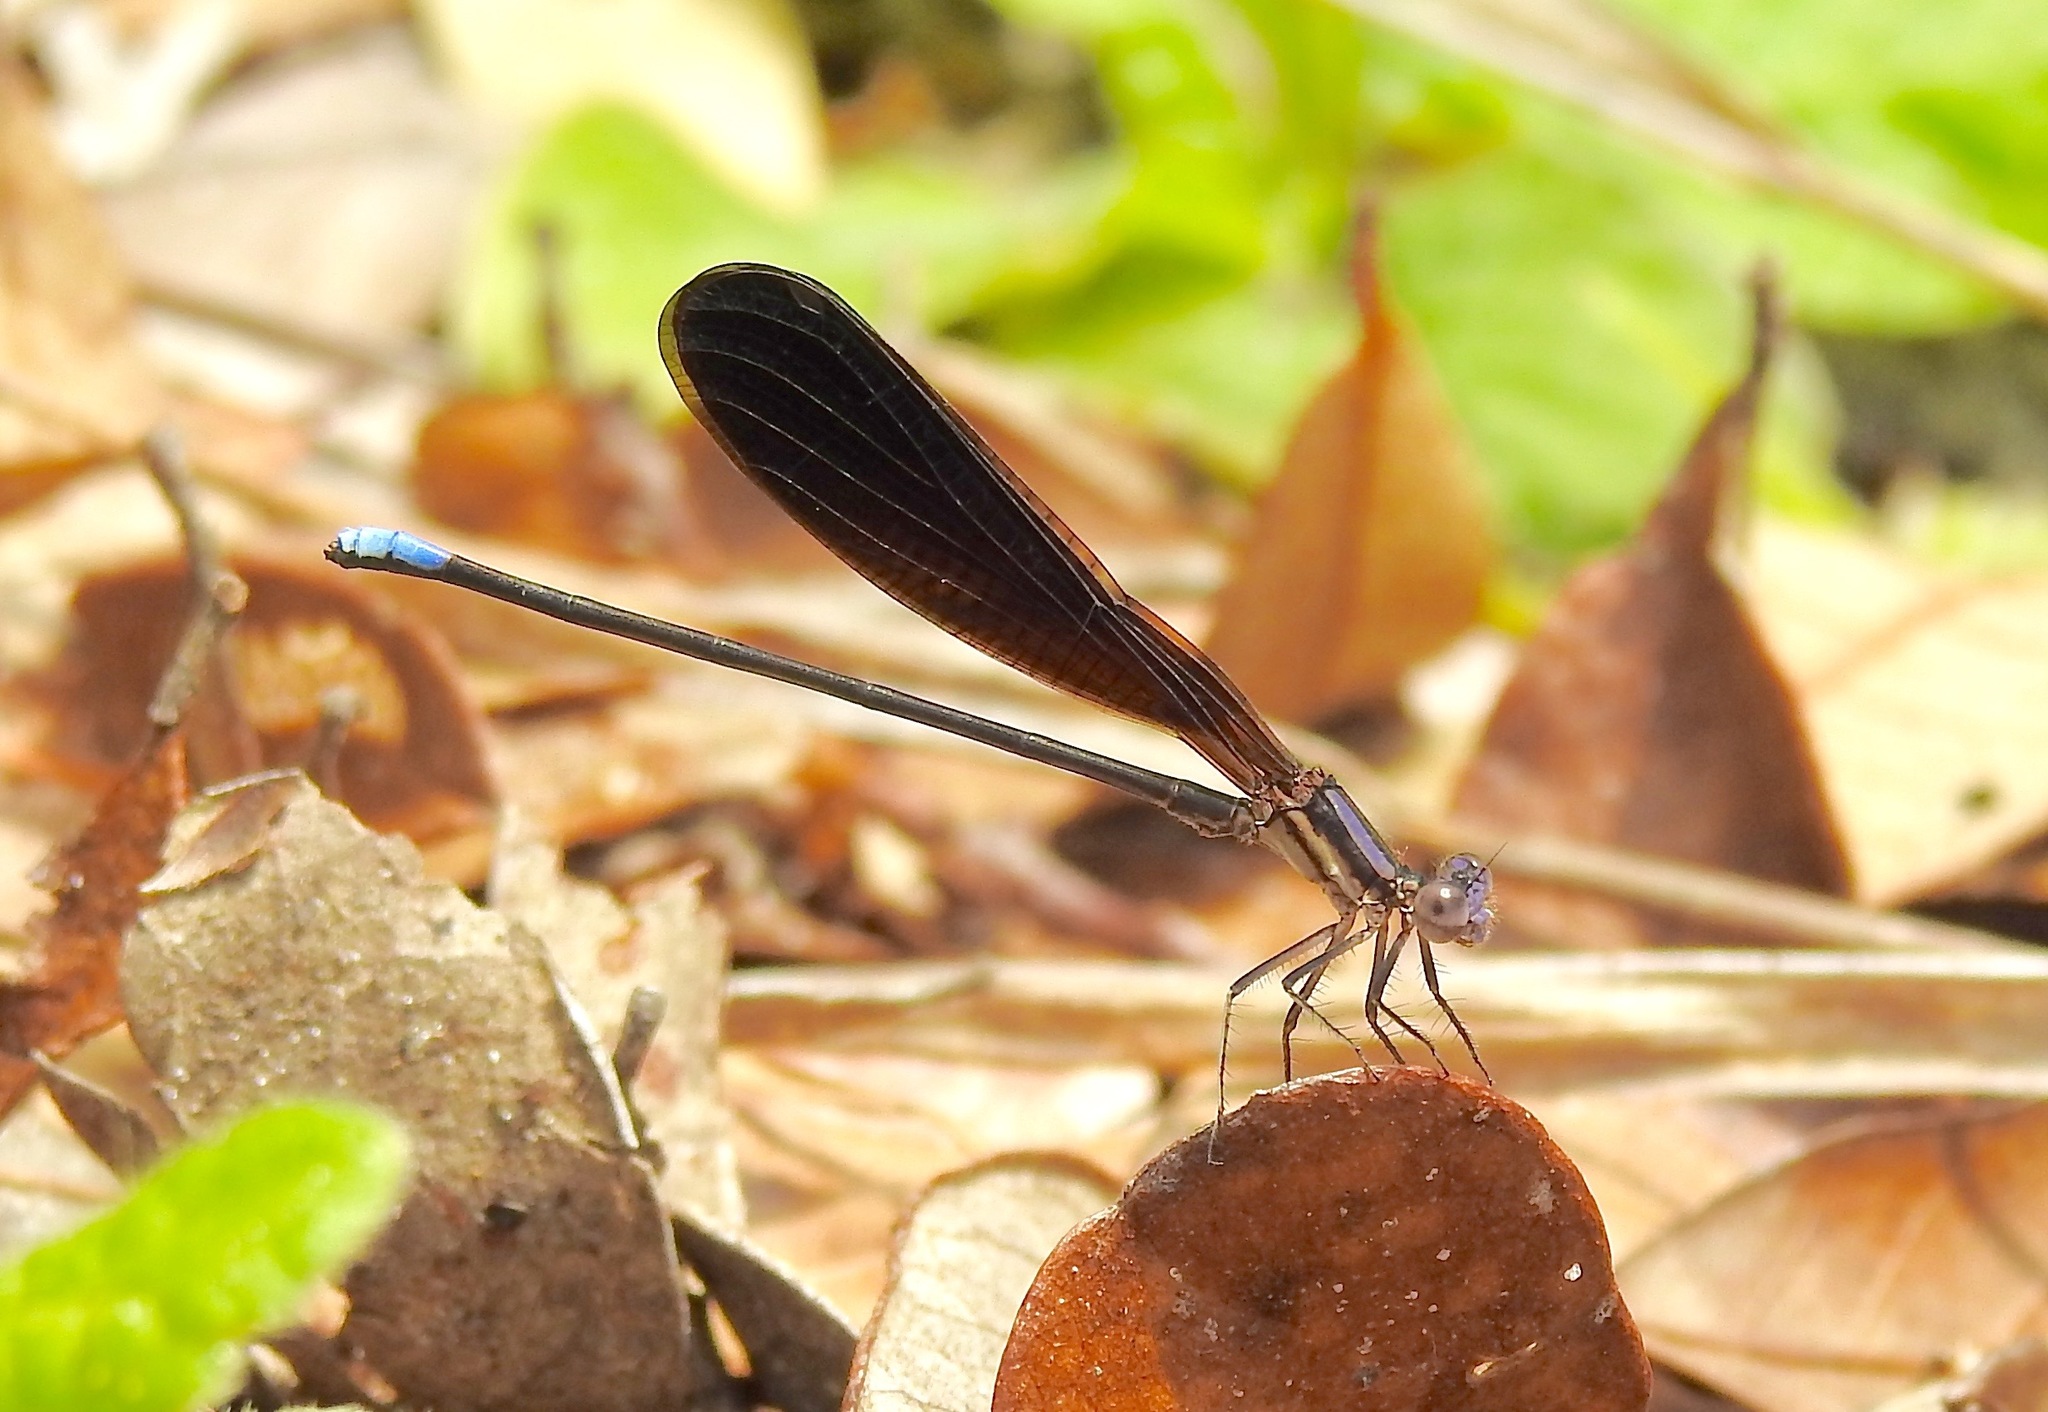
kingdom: Animalia
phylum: Arthropoda
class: Insecta
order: Odonata
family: Coenagrionidae
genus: Argia
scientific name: Argia fumipennis
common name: Variable dancer
